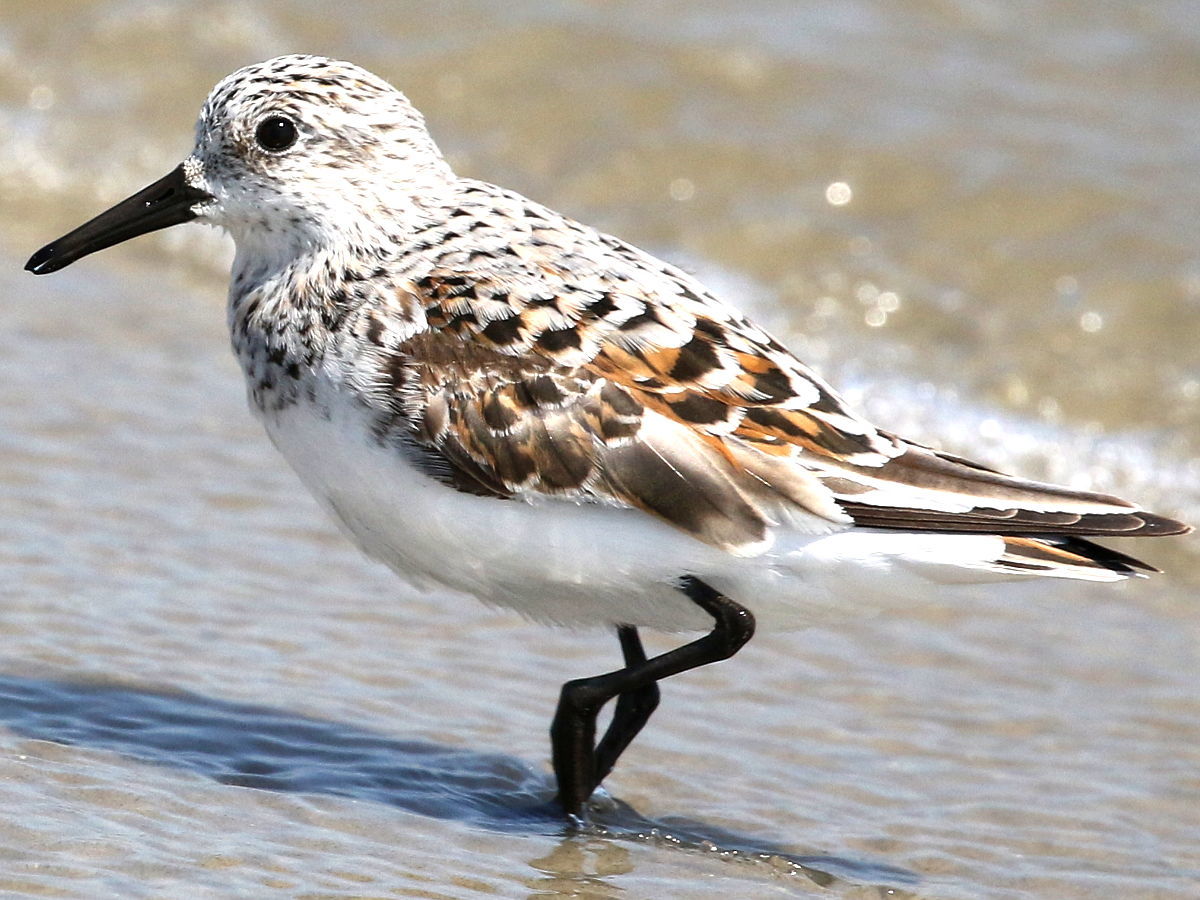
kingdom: Animalia
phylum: Chordata
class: Aves
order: Charadriiformes
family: Scolopacidae
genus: Calidris
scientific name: Calidris alba
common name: Sanderling
